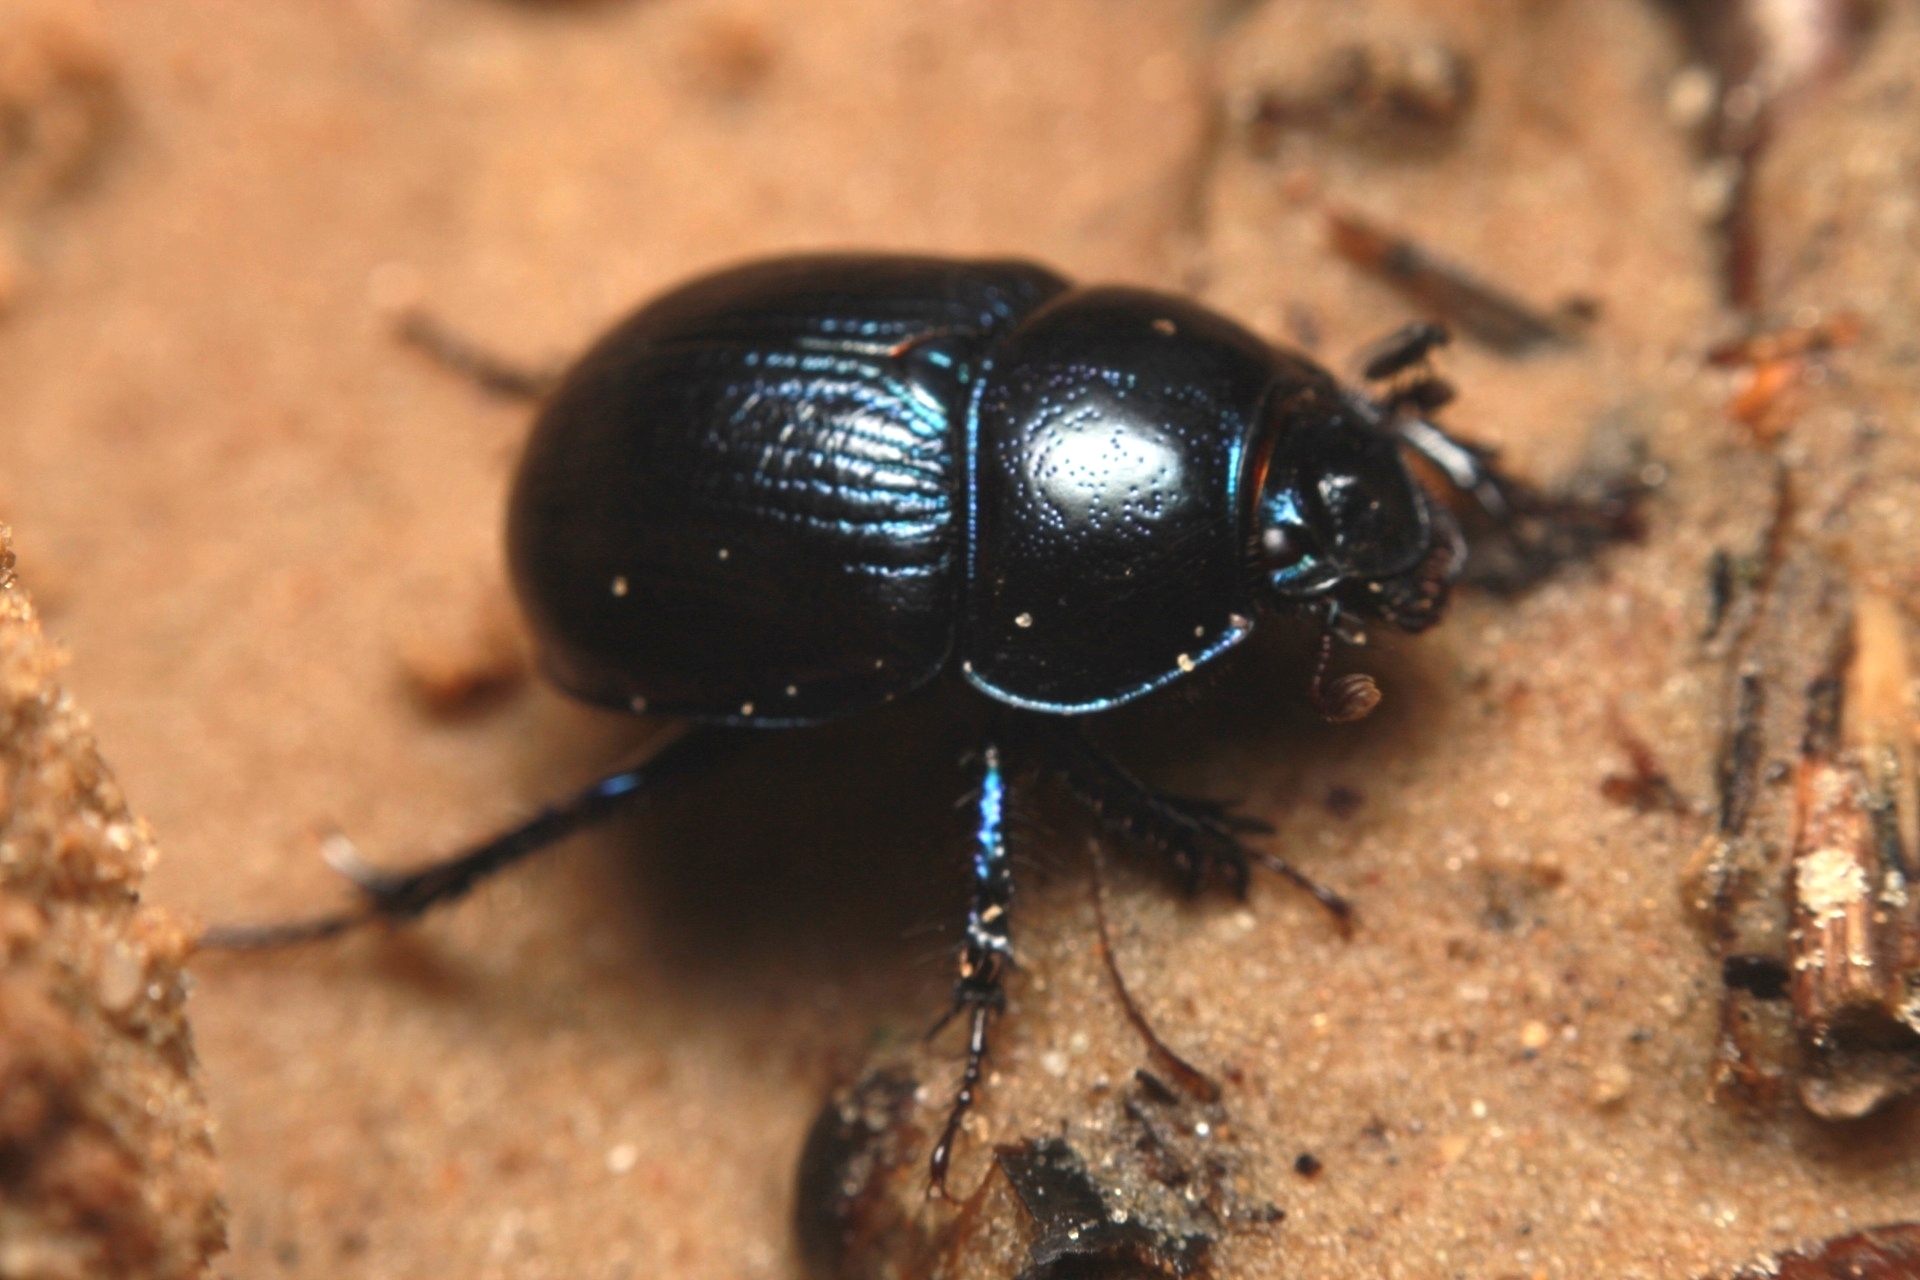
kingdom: Animalia
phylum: Arthropoda
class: Insecta
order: Coleoptera
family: Geotrupidae
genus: Anoplotrupes
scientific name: Anoplotrupes stercorosus
